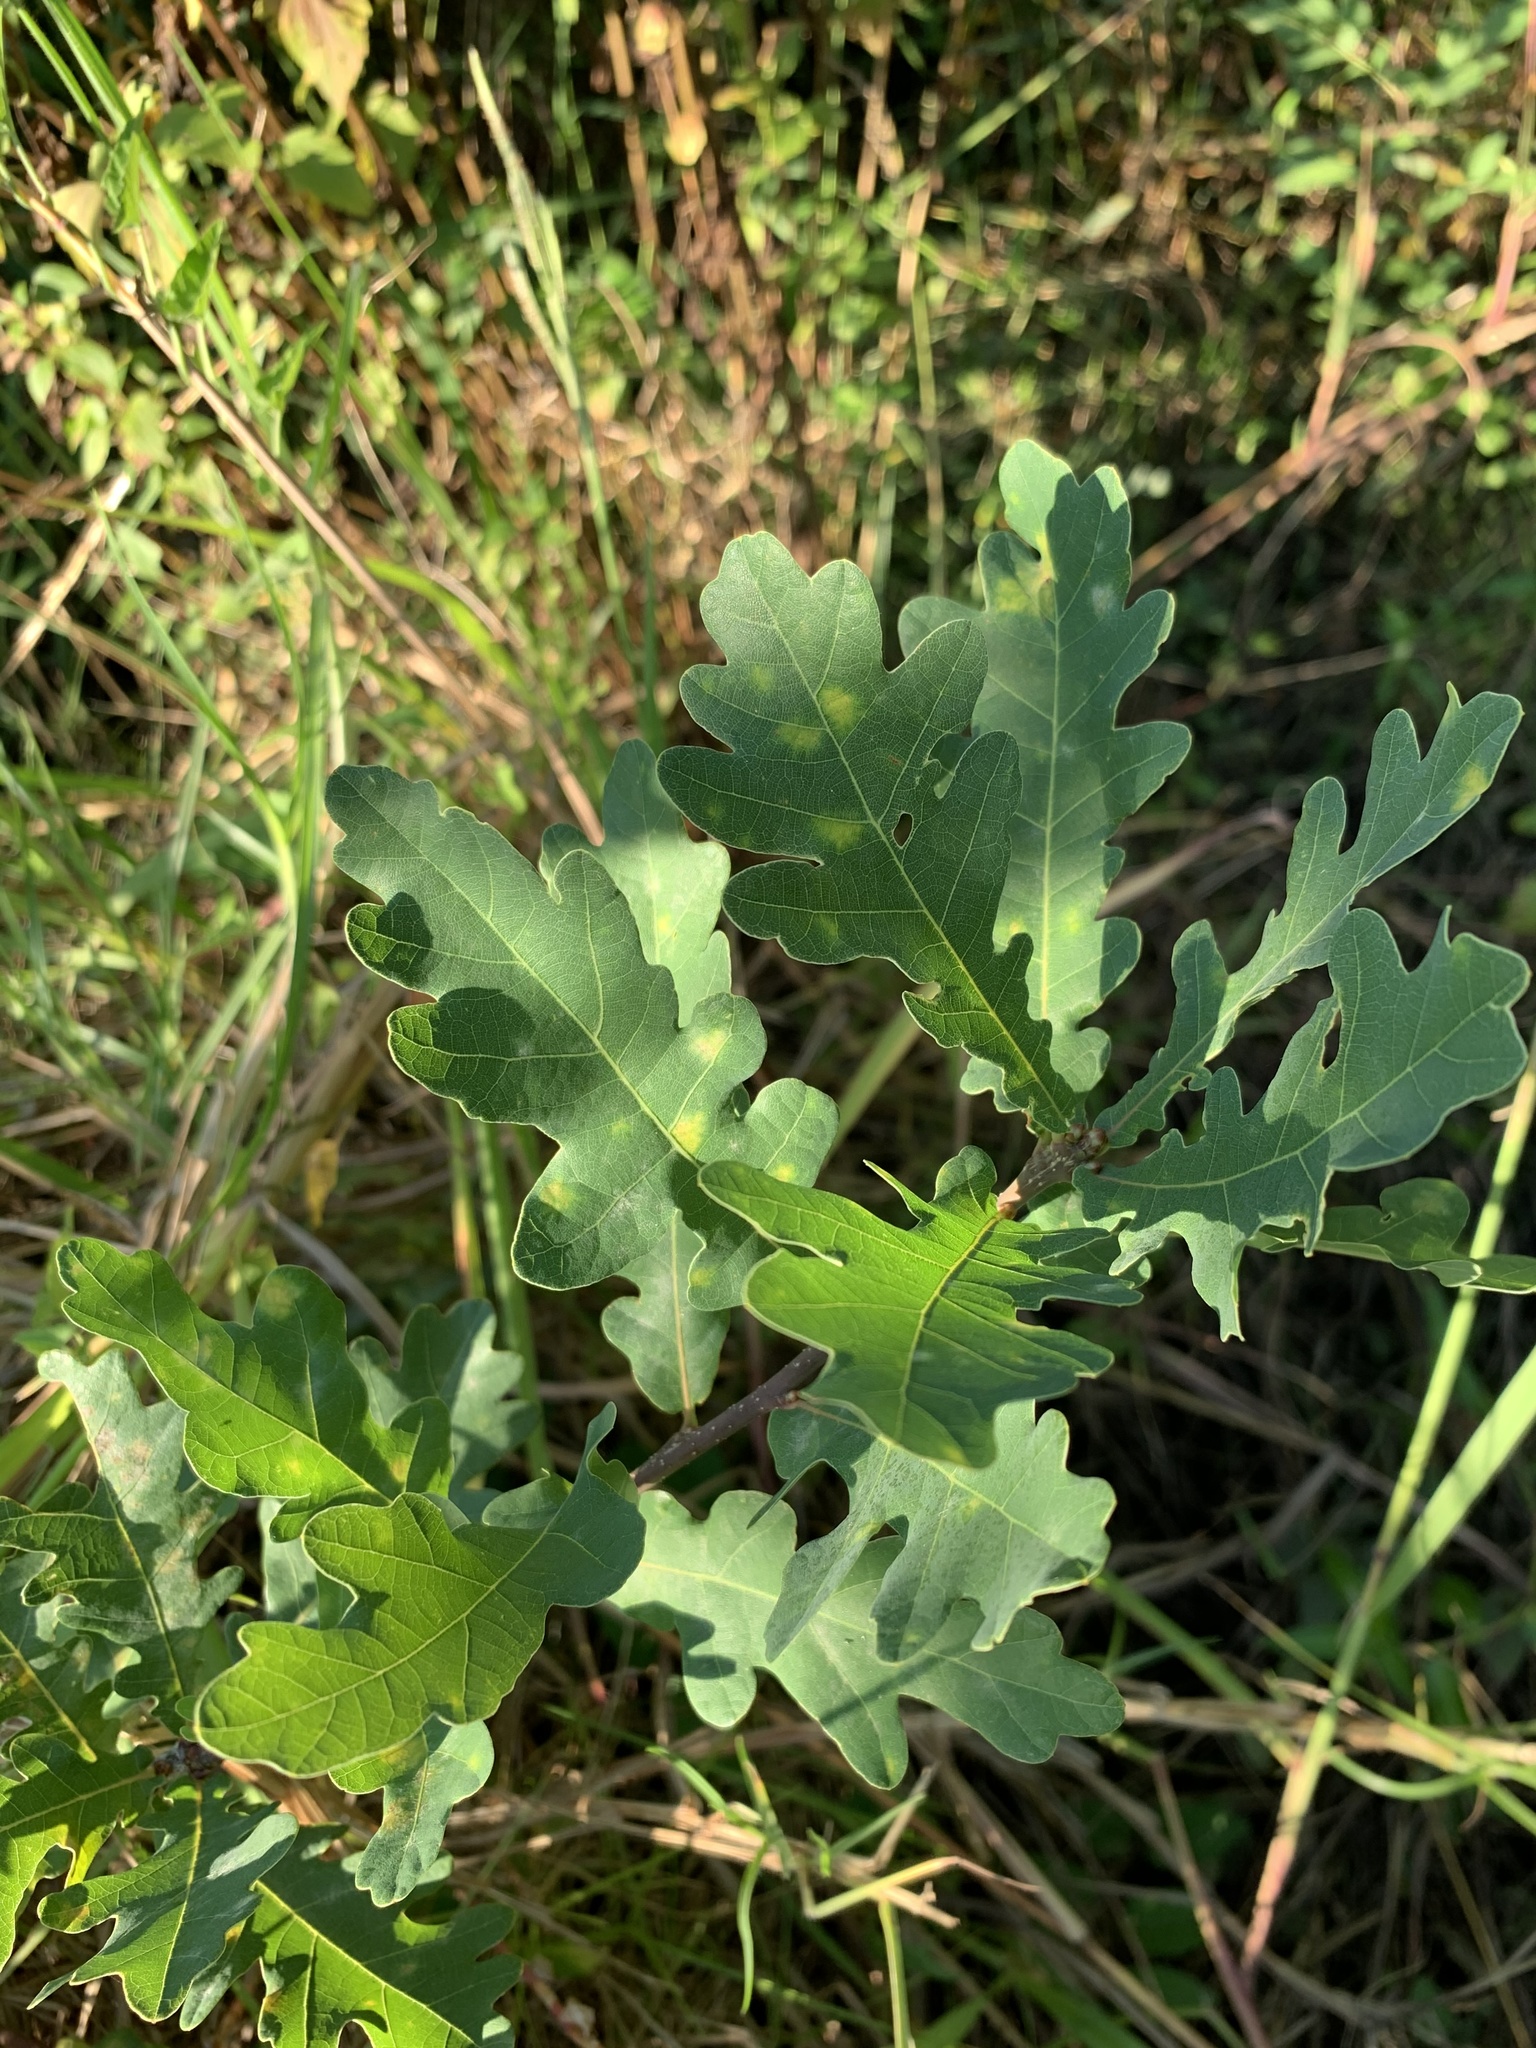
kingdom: Plantae
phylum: Tracheophyta
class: Magnoliopsida
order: Fagales
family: Fagaceae
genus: Quercus
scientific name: Quercus robur
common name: Pedunculate oak
